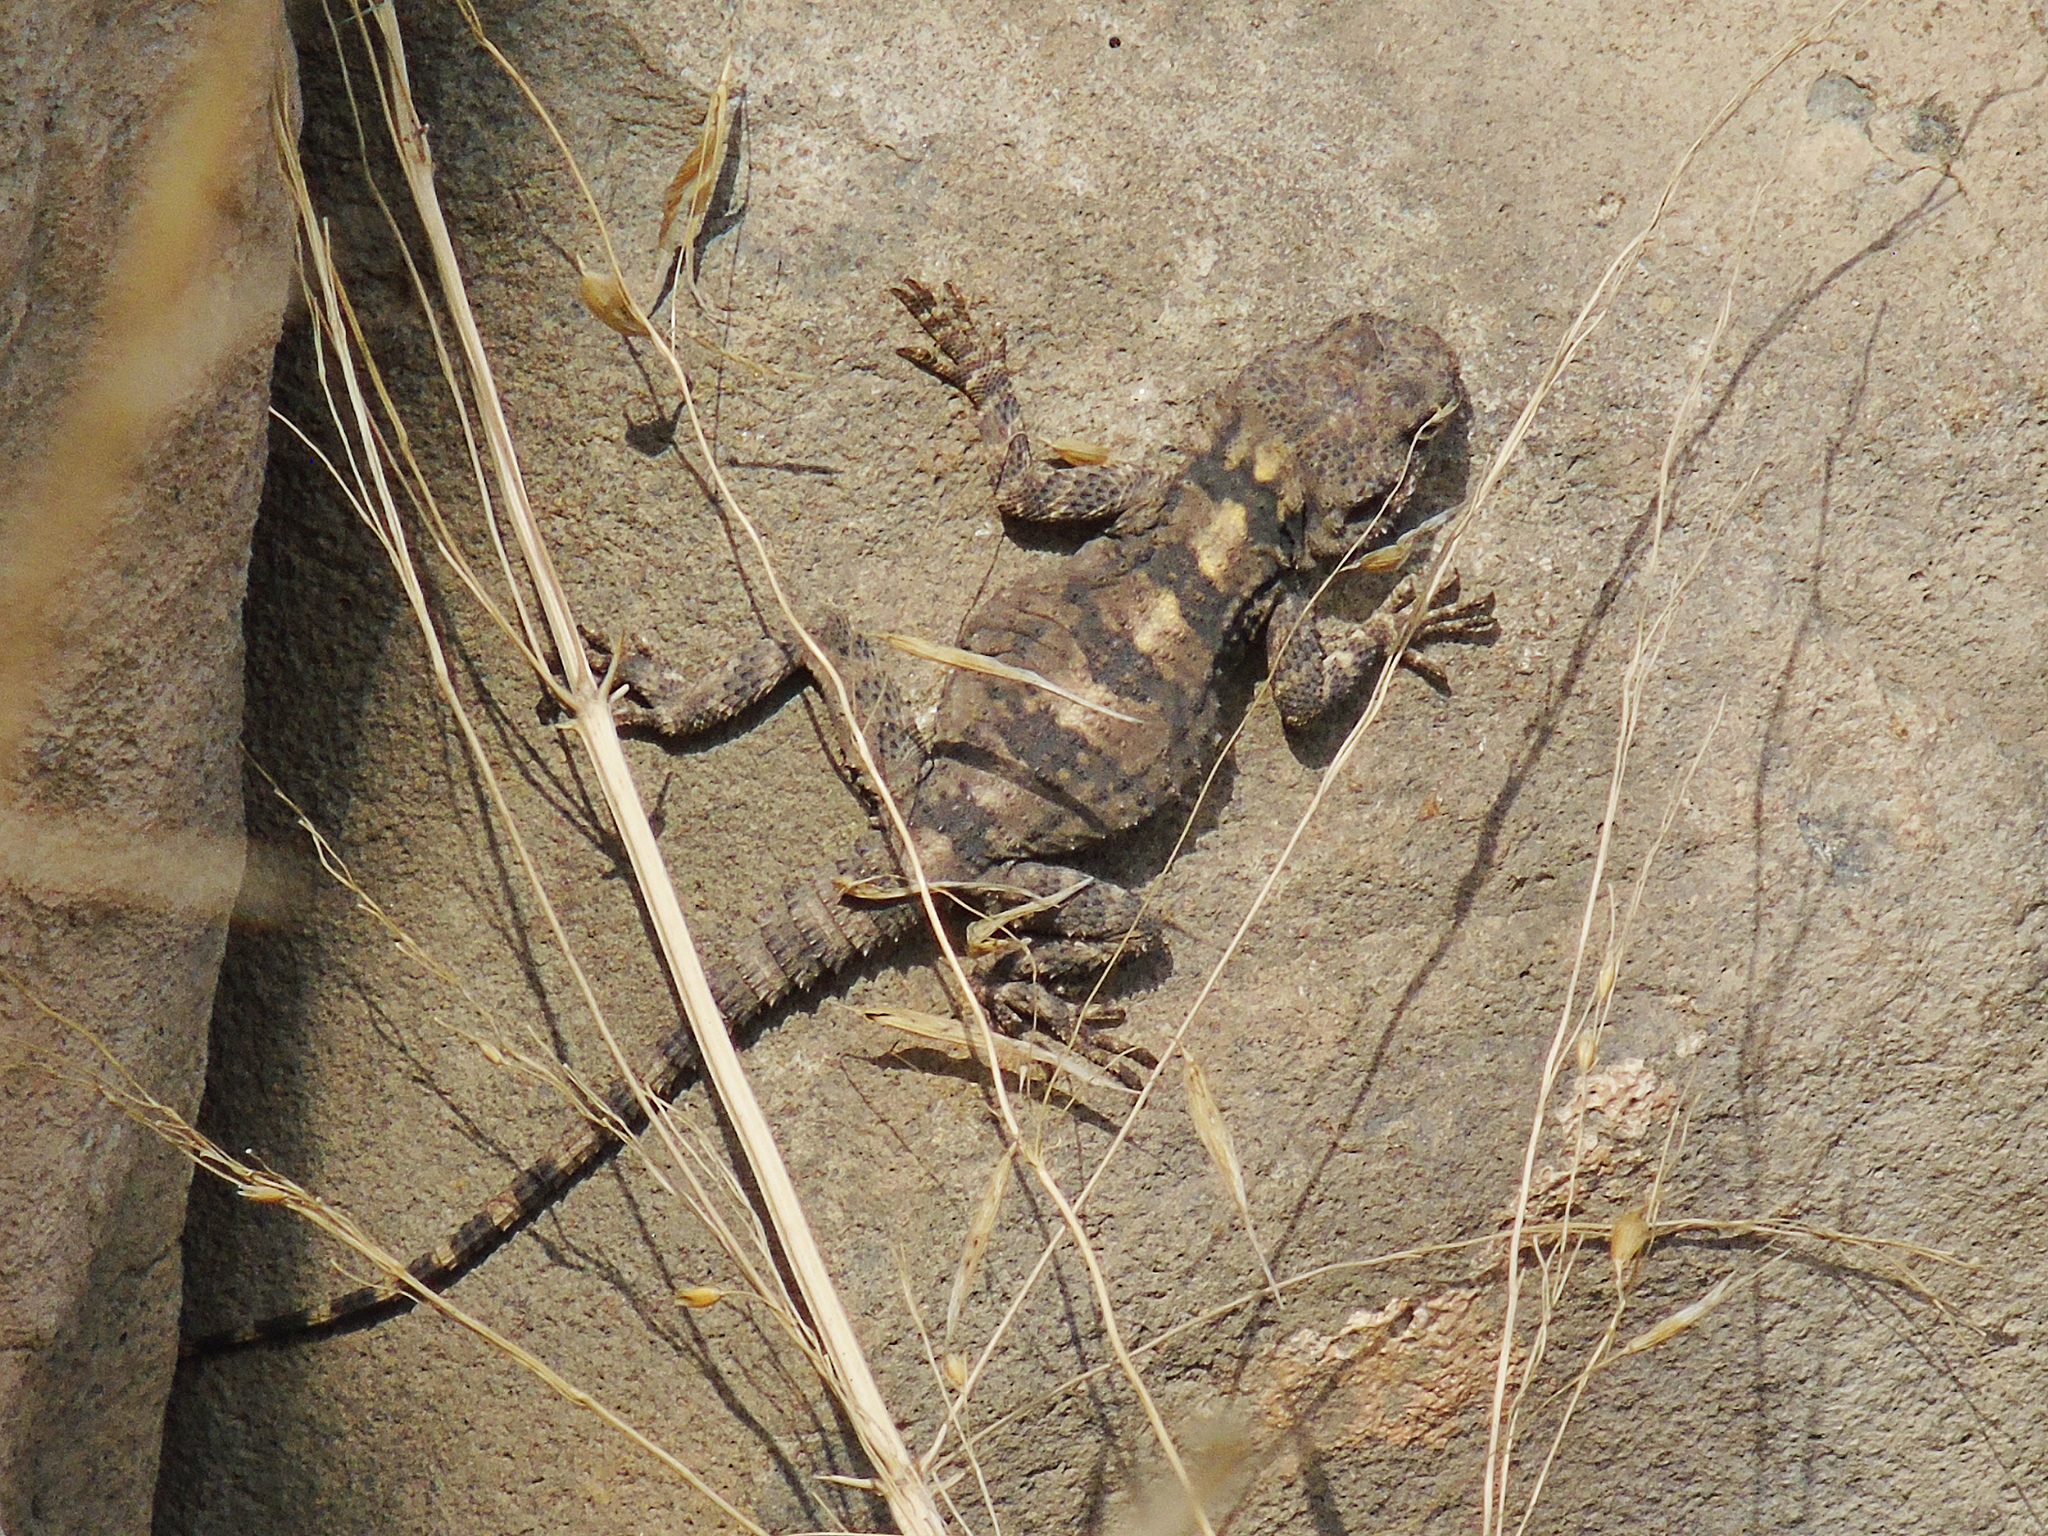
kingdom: Animalia
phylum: Chordata
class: Squamata
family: Agamidae
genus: Stellagama
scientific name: Stellagama stellio
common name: Starred agama
